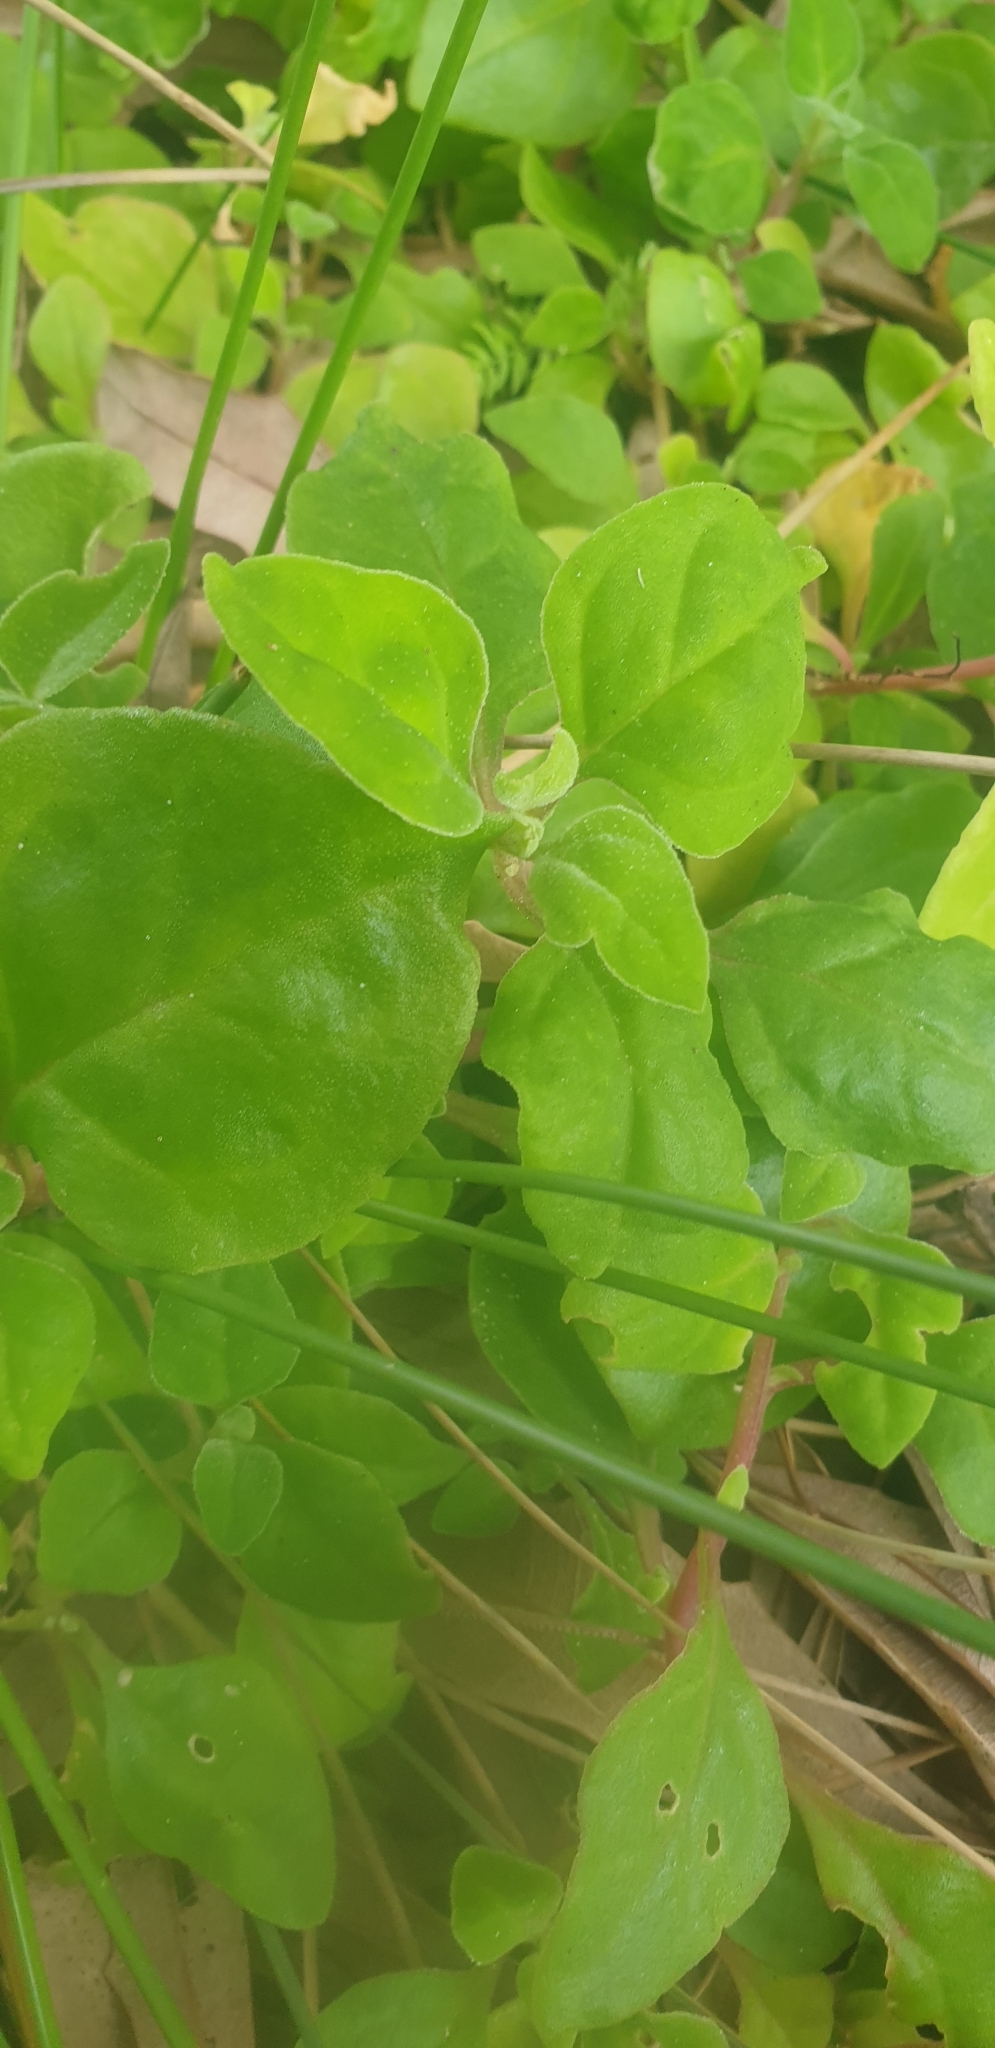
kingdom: Plantae
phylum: Tracheophyta
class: Magnoliopsida
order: Caryophyllales
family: Aizoaceae
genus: Tetragonia
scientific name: Tetragonia implexicoma
